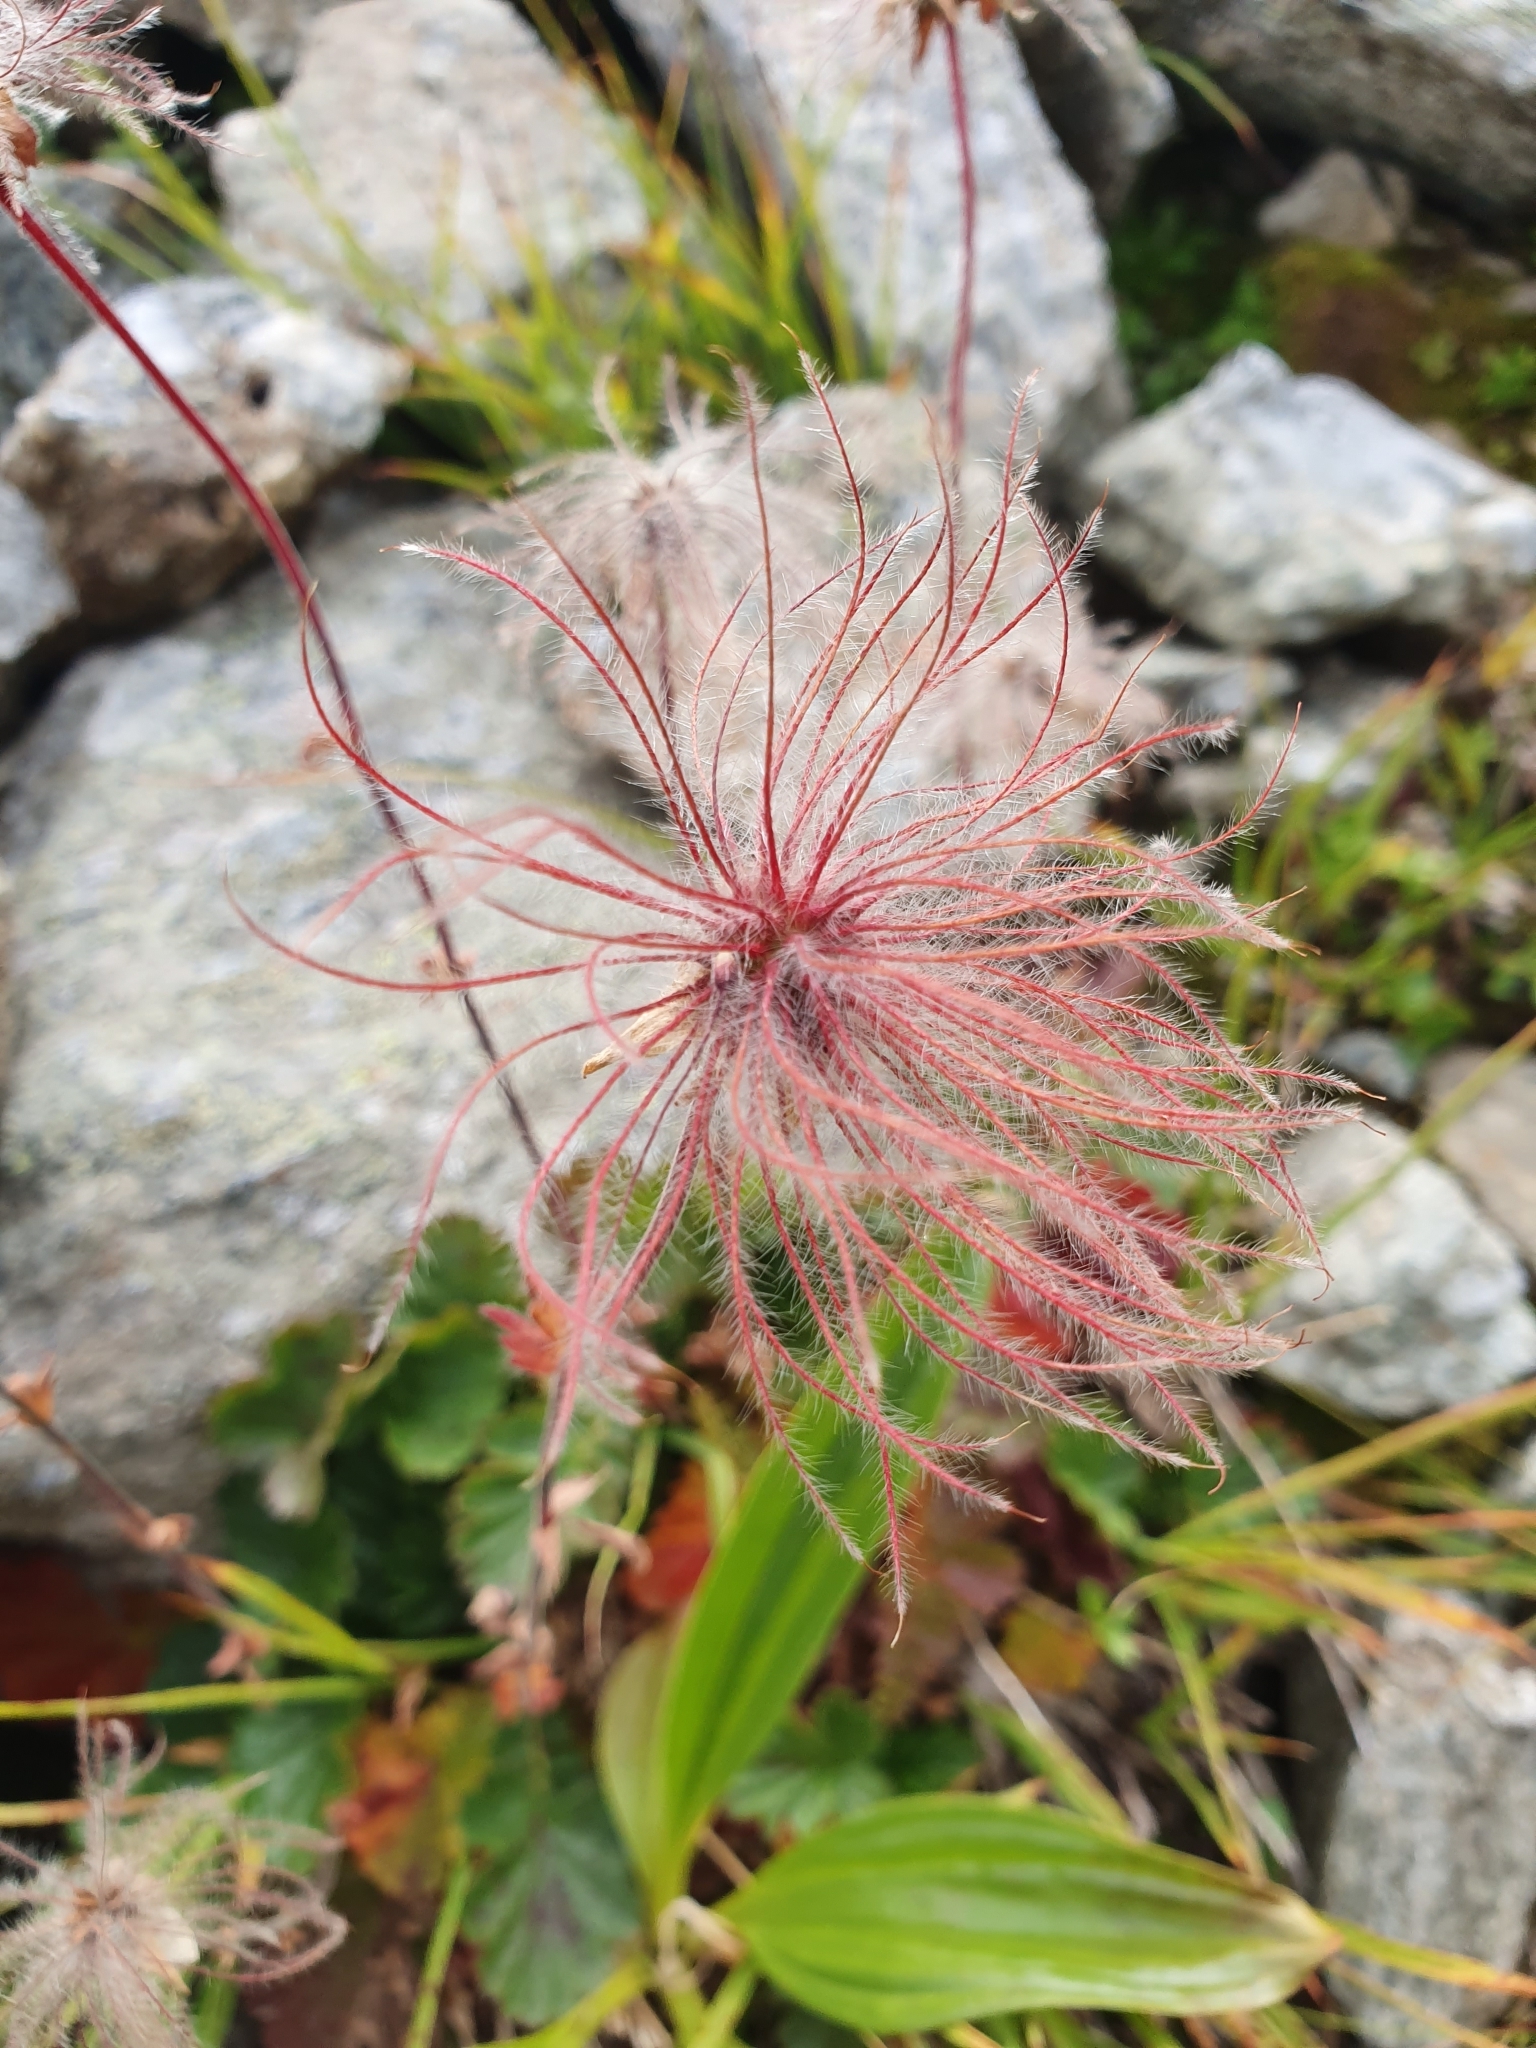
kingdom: Plantae
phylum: Tracheophyta
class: Magnoliopsida
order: Rosales
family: Rosaceae
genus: Geum
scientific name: Geum montanum
